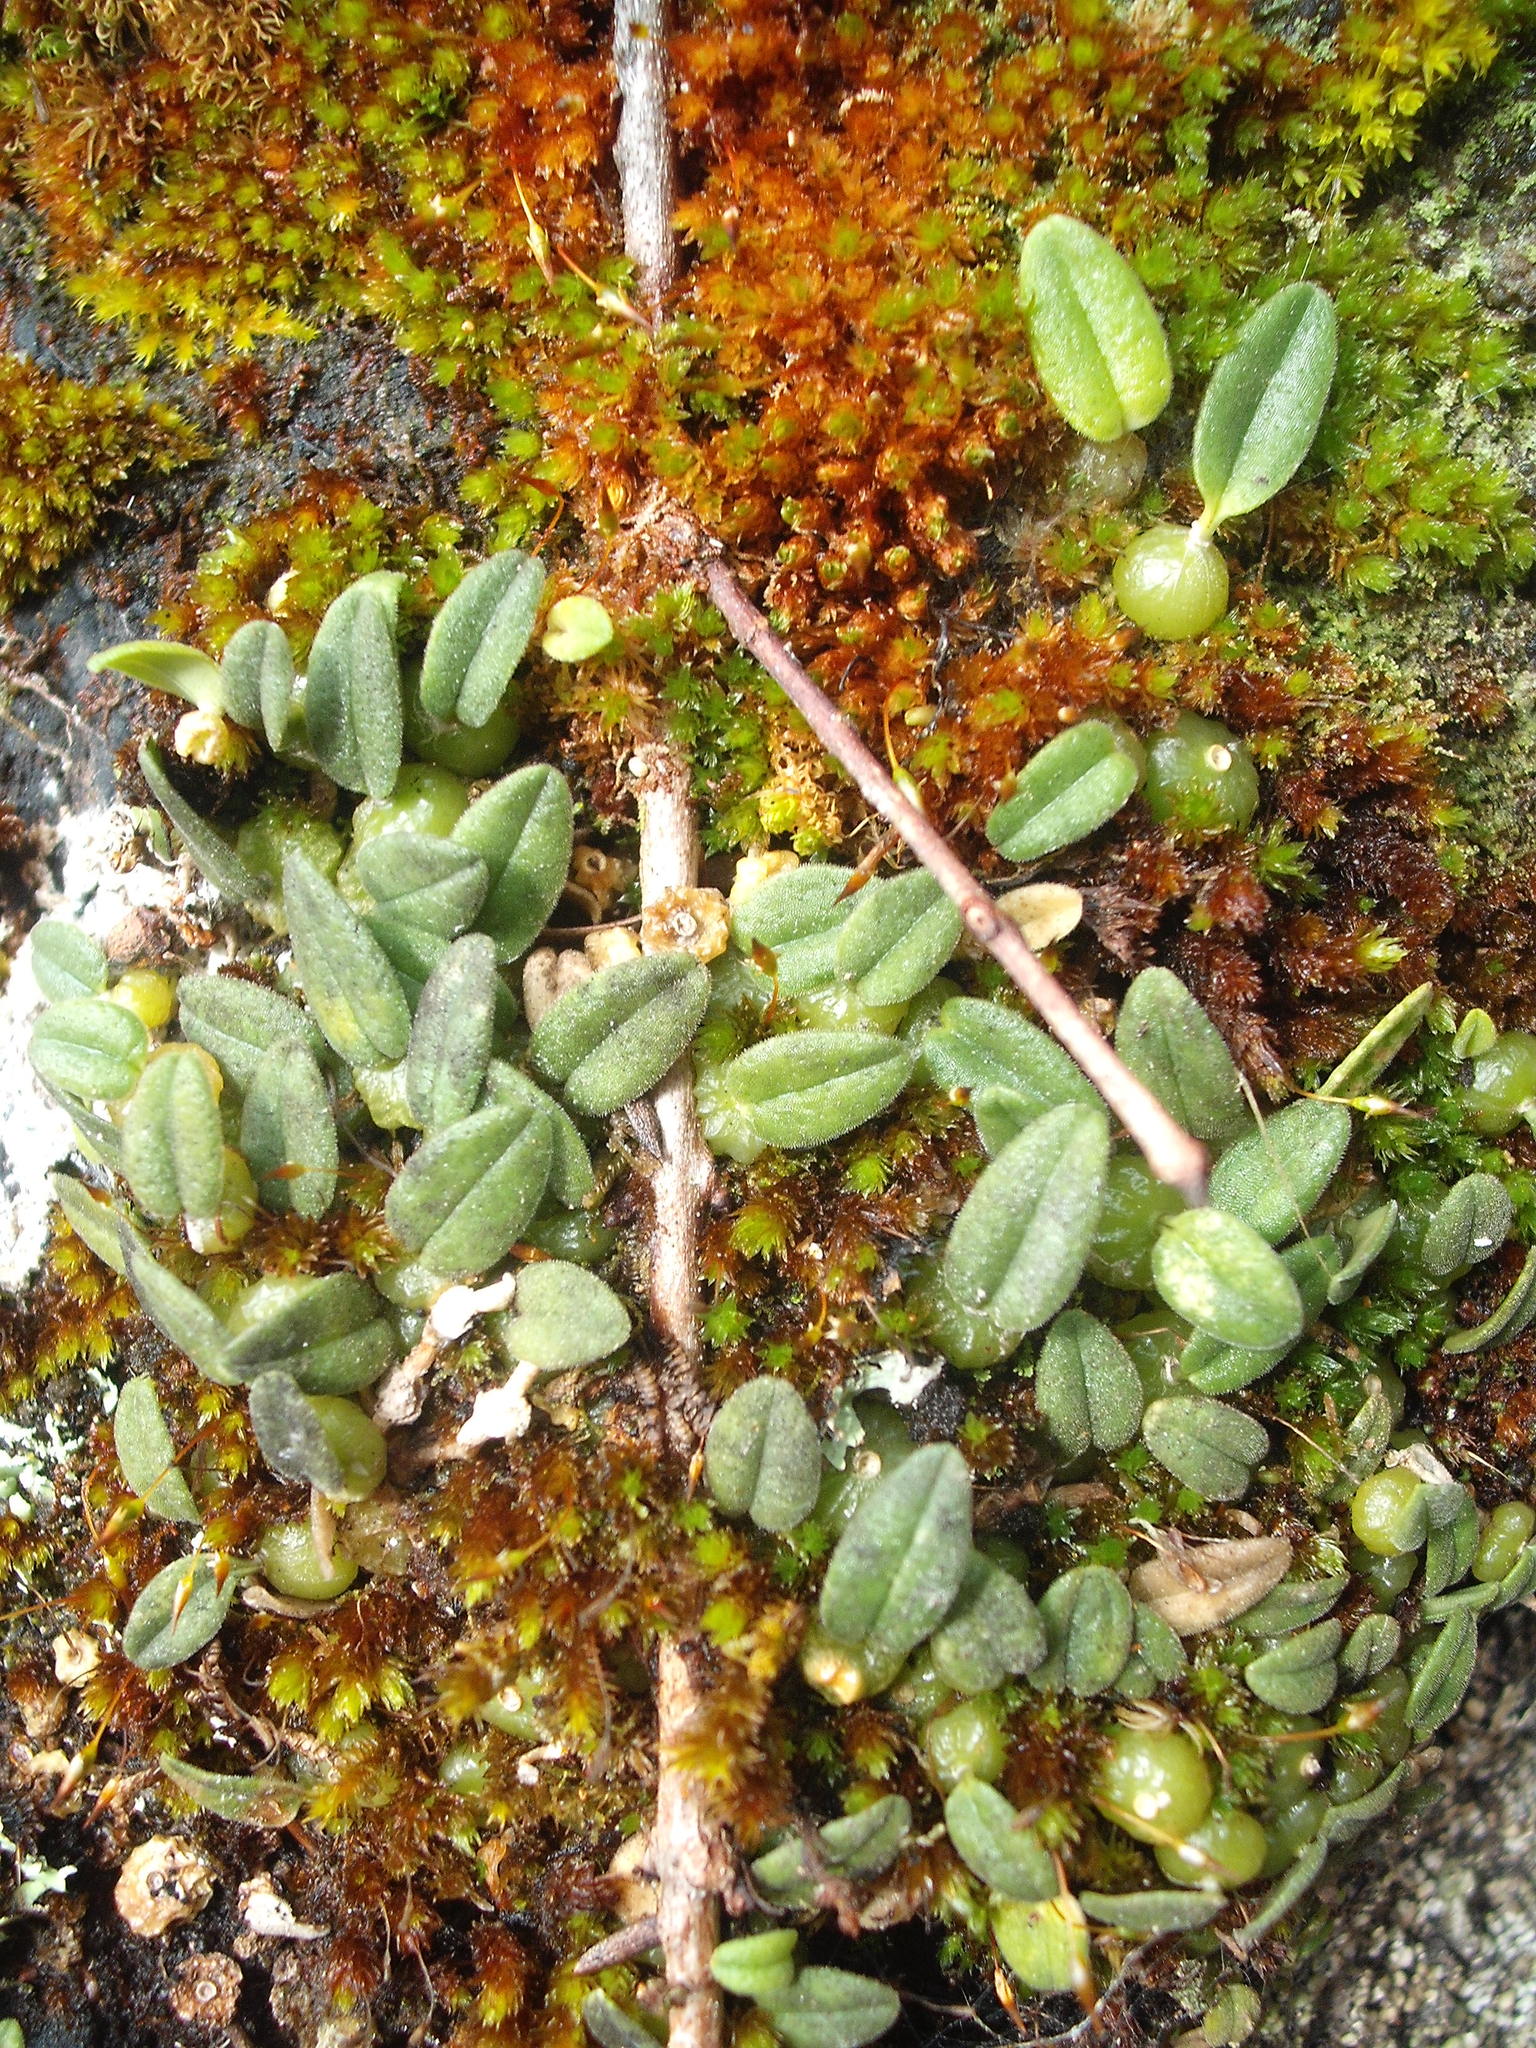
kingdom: Plantae
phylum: Tracheophyta
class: Liliopsida
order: Asparagales
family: Orchidaceae
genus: Bulbophyllum
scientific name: Bulbophyllum pygmaeum
